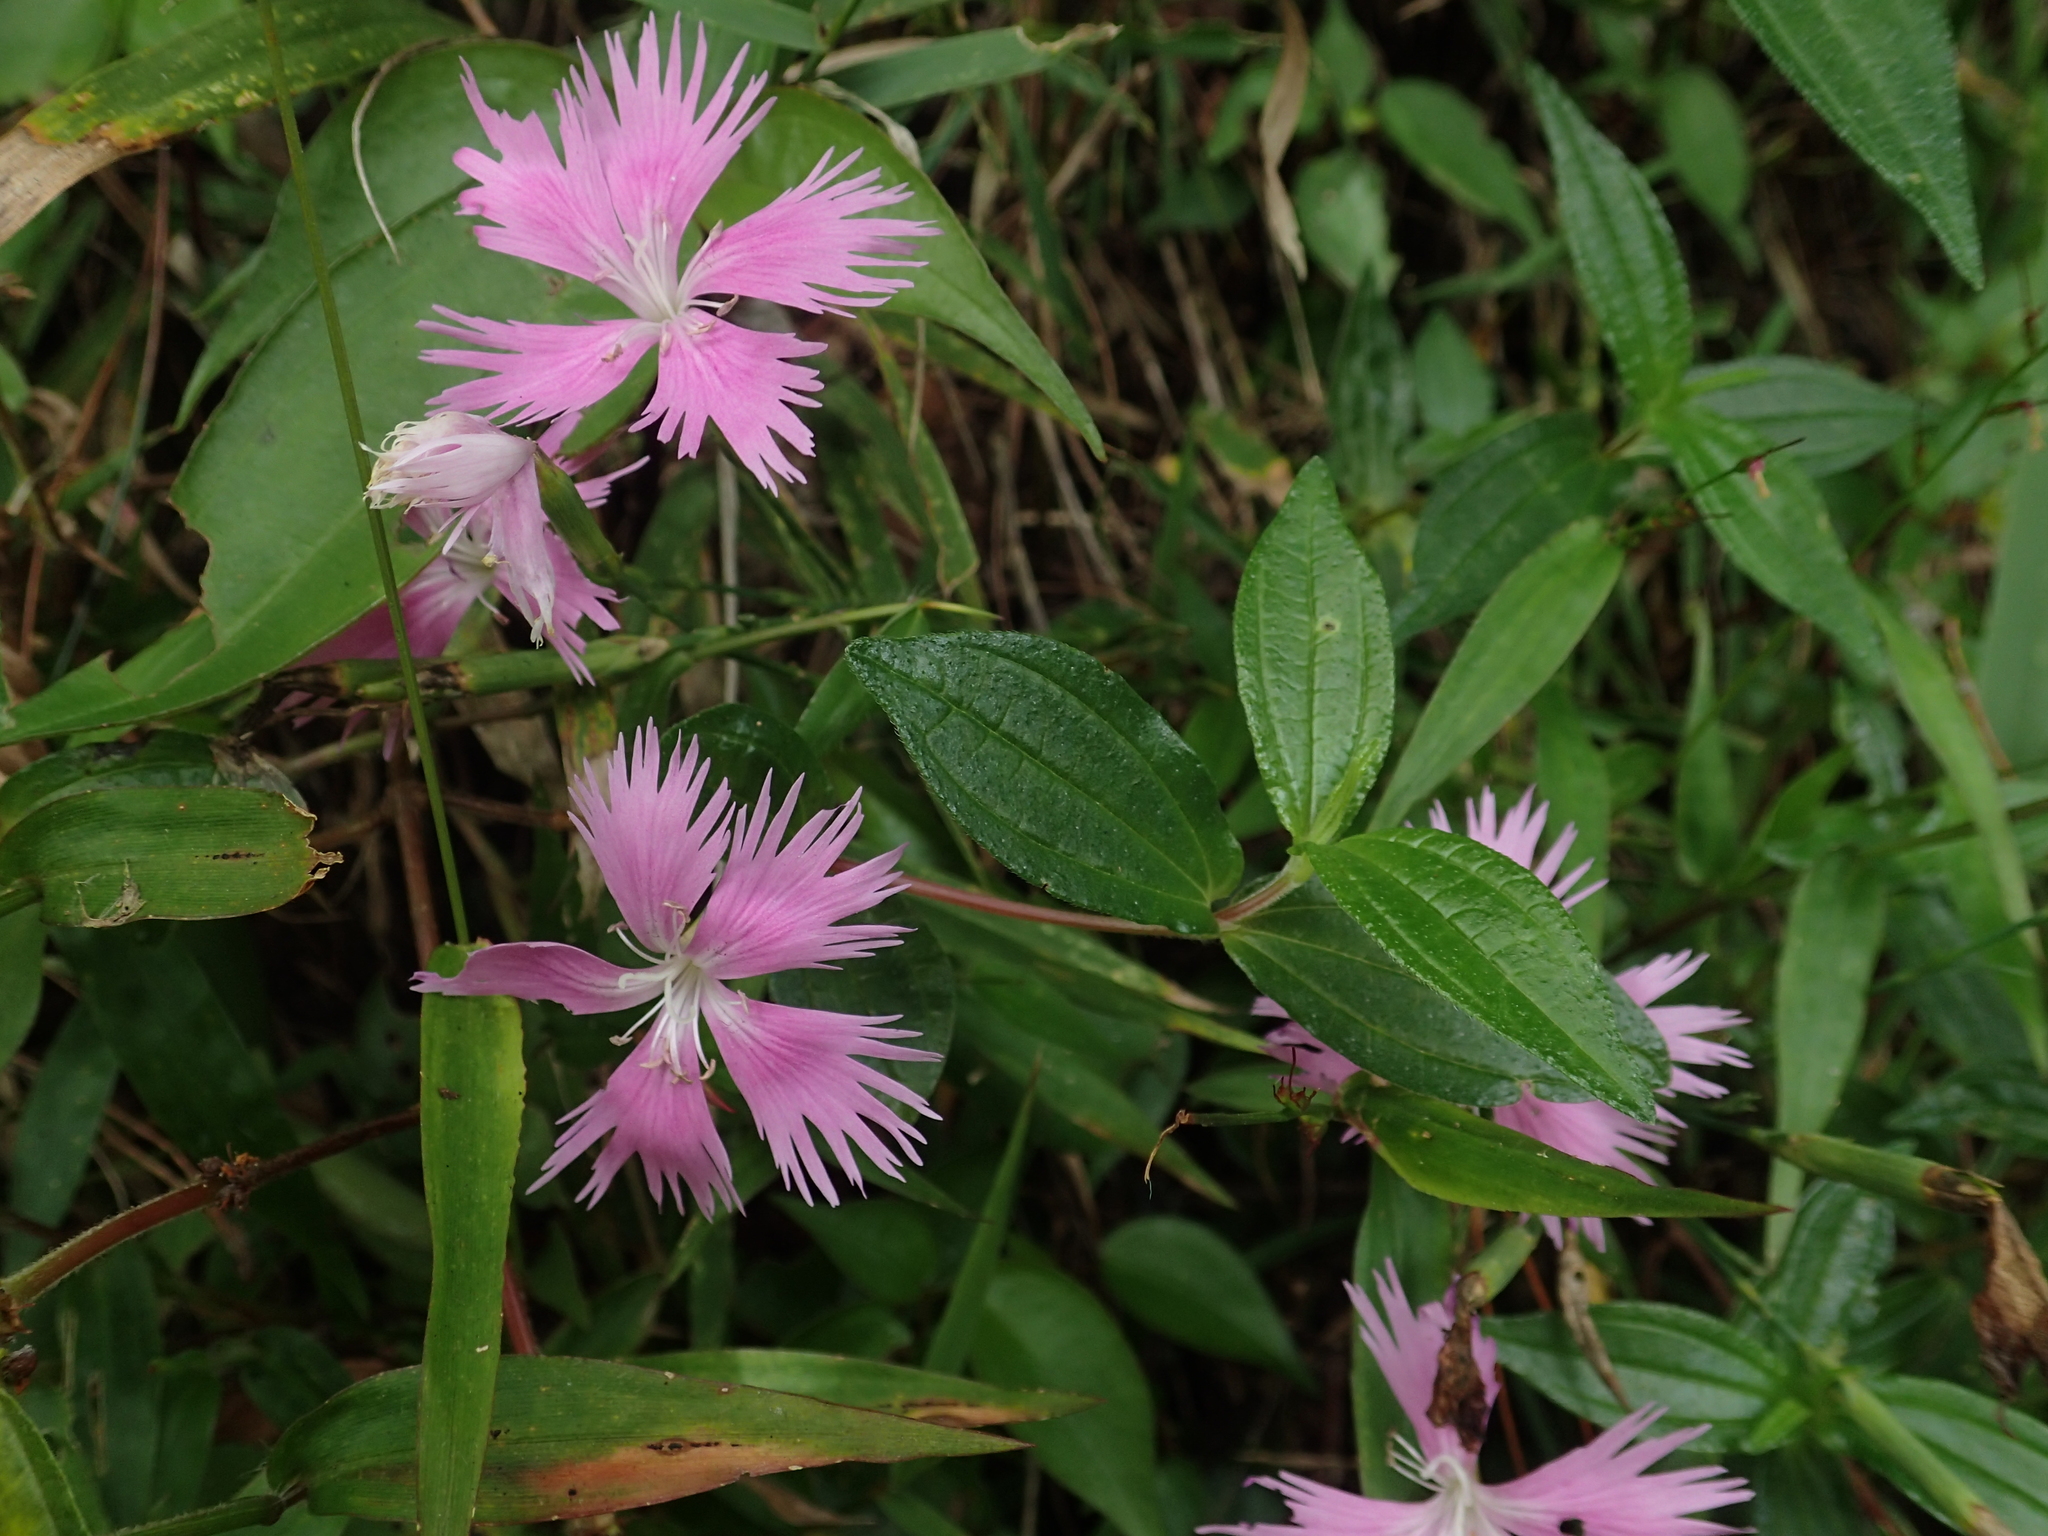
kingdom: Plantae
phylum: Tracheophyta
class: Magnoliopsida
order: Caryophyllales
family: Caryophyllaceae
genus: Dianthus
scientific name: Dianthus pygmaeus
